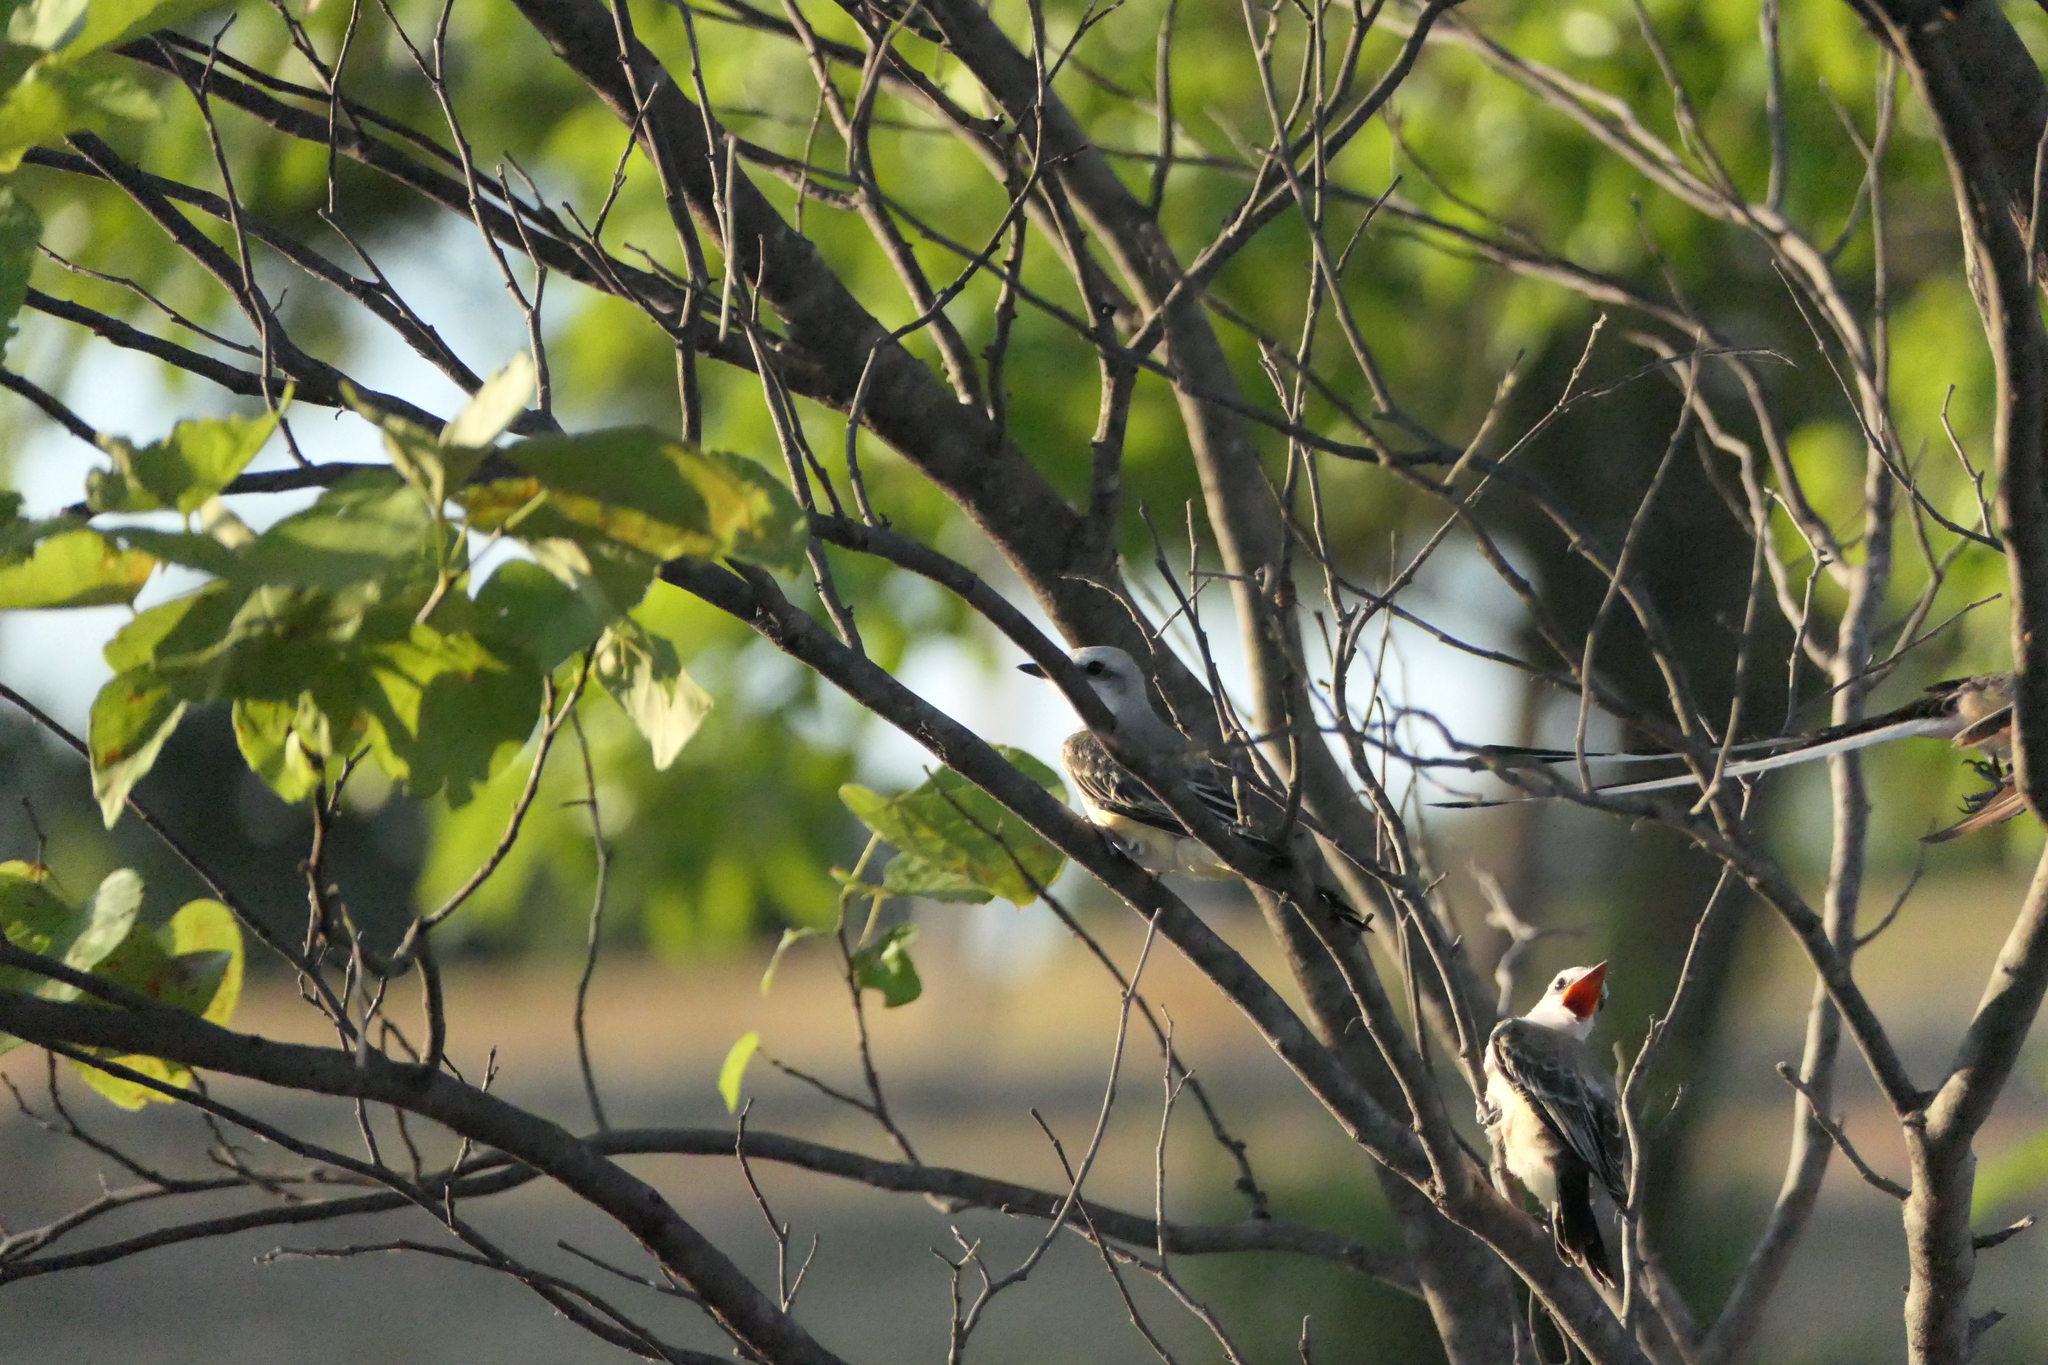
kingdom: Animalia
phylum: Chordata
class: Aves
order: Passeriformes
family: Tyrannidae
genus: Tyrannus
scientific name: Tyrannus forficatus
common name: Scissor-tailed flycatcher
